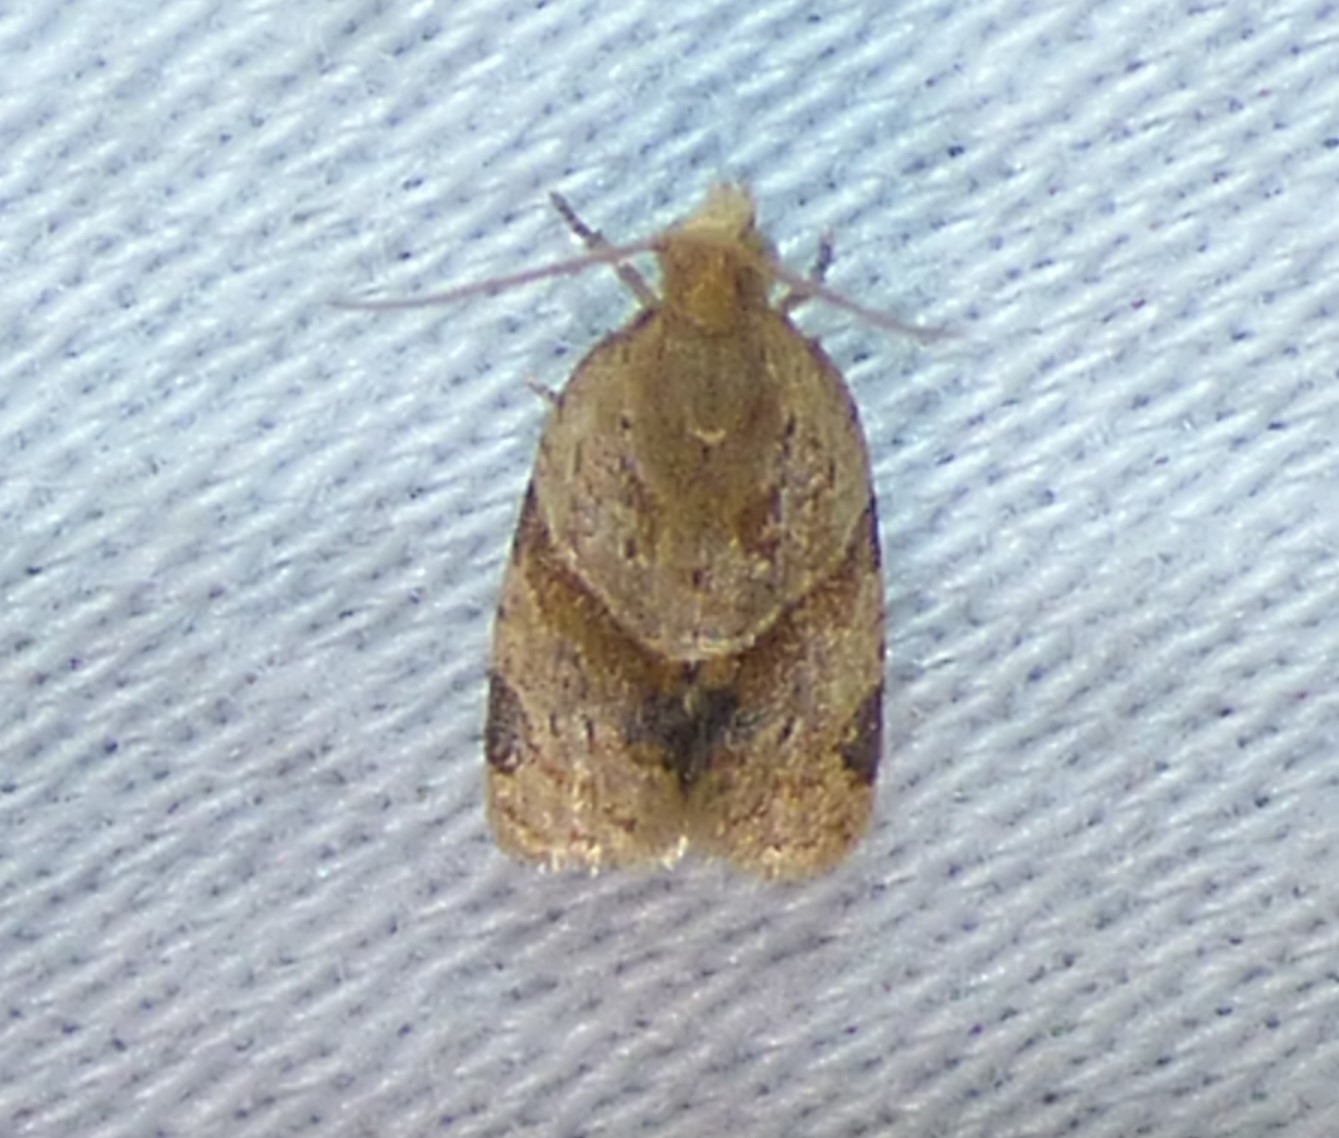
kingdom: Animalia
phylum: Arthropoda
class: Insecta
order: Lepidoptera
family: Tortricidae
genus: Clepsis
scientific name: Clepsis peritana
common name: Garden tortrix
